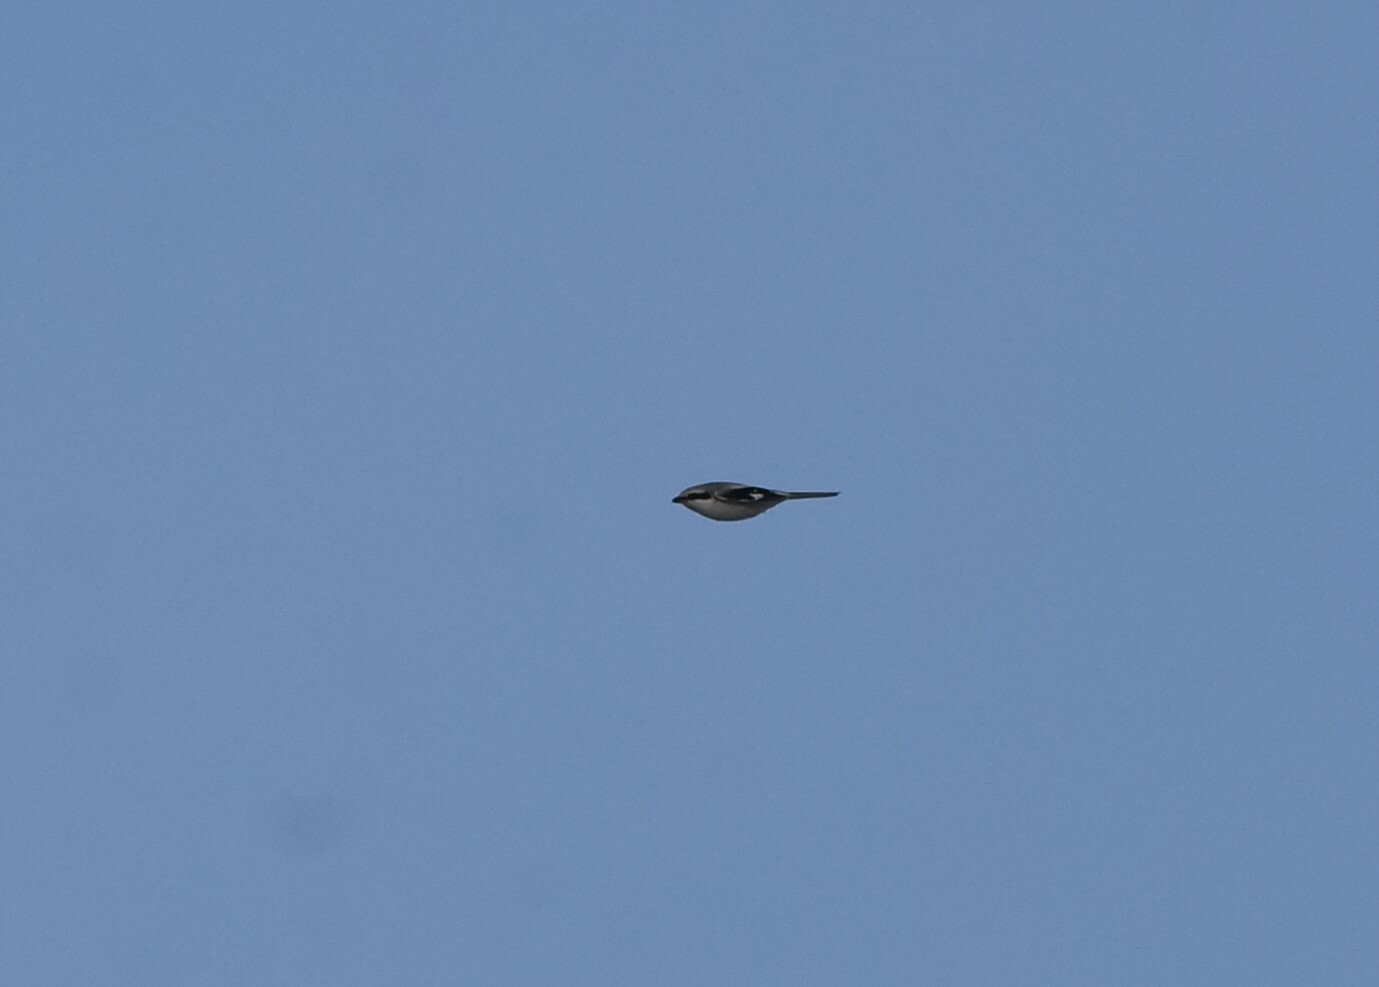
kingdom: Animalia
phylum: Chordata
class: Aves
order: Passeriformes
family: Laniidae
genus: Lanius
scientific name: Lanius excubitor
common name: Great grey shrike
